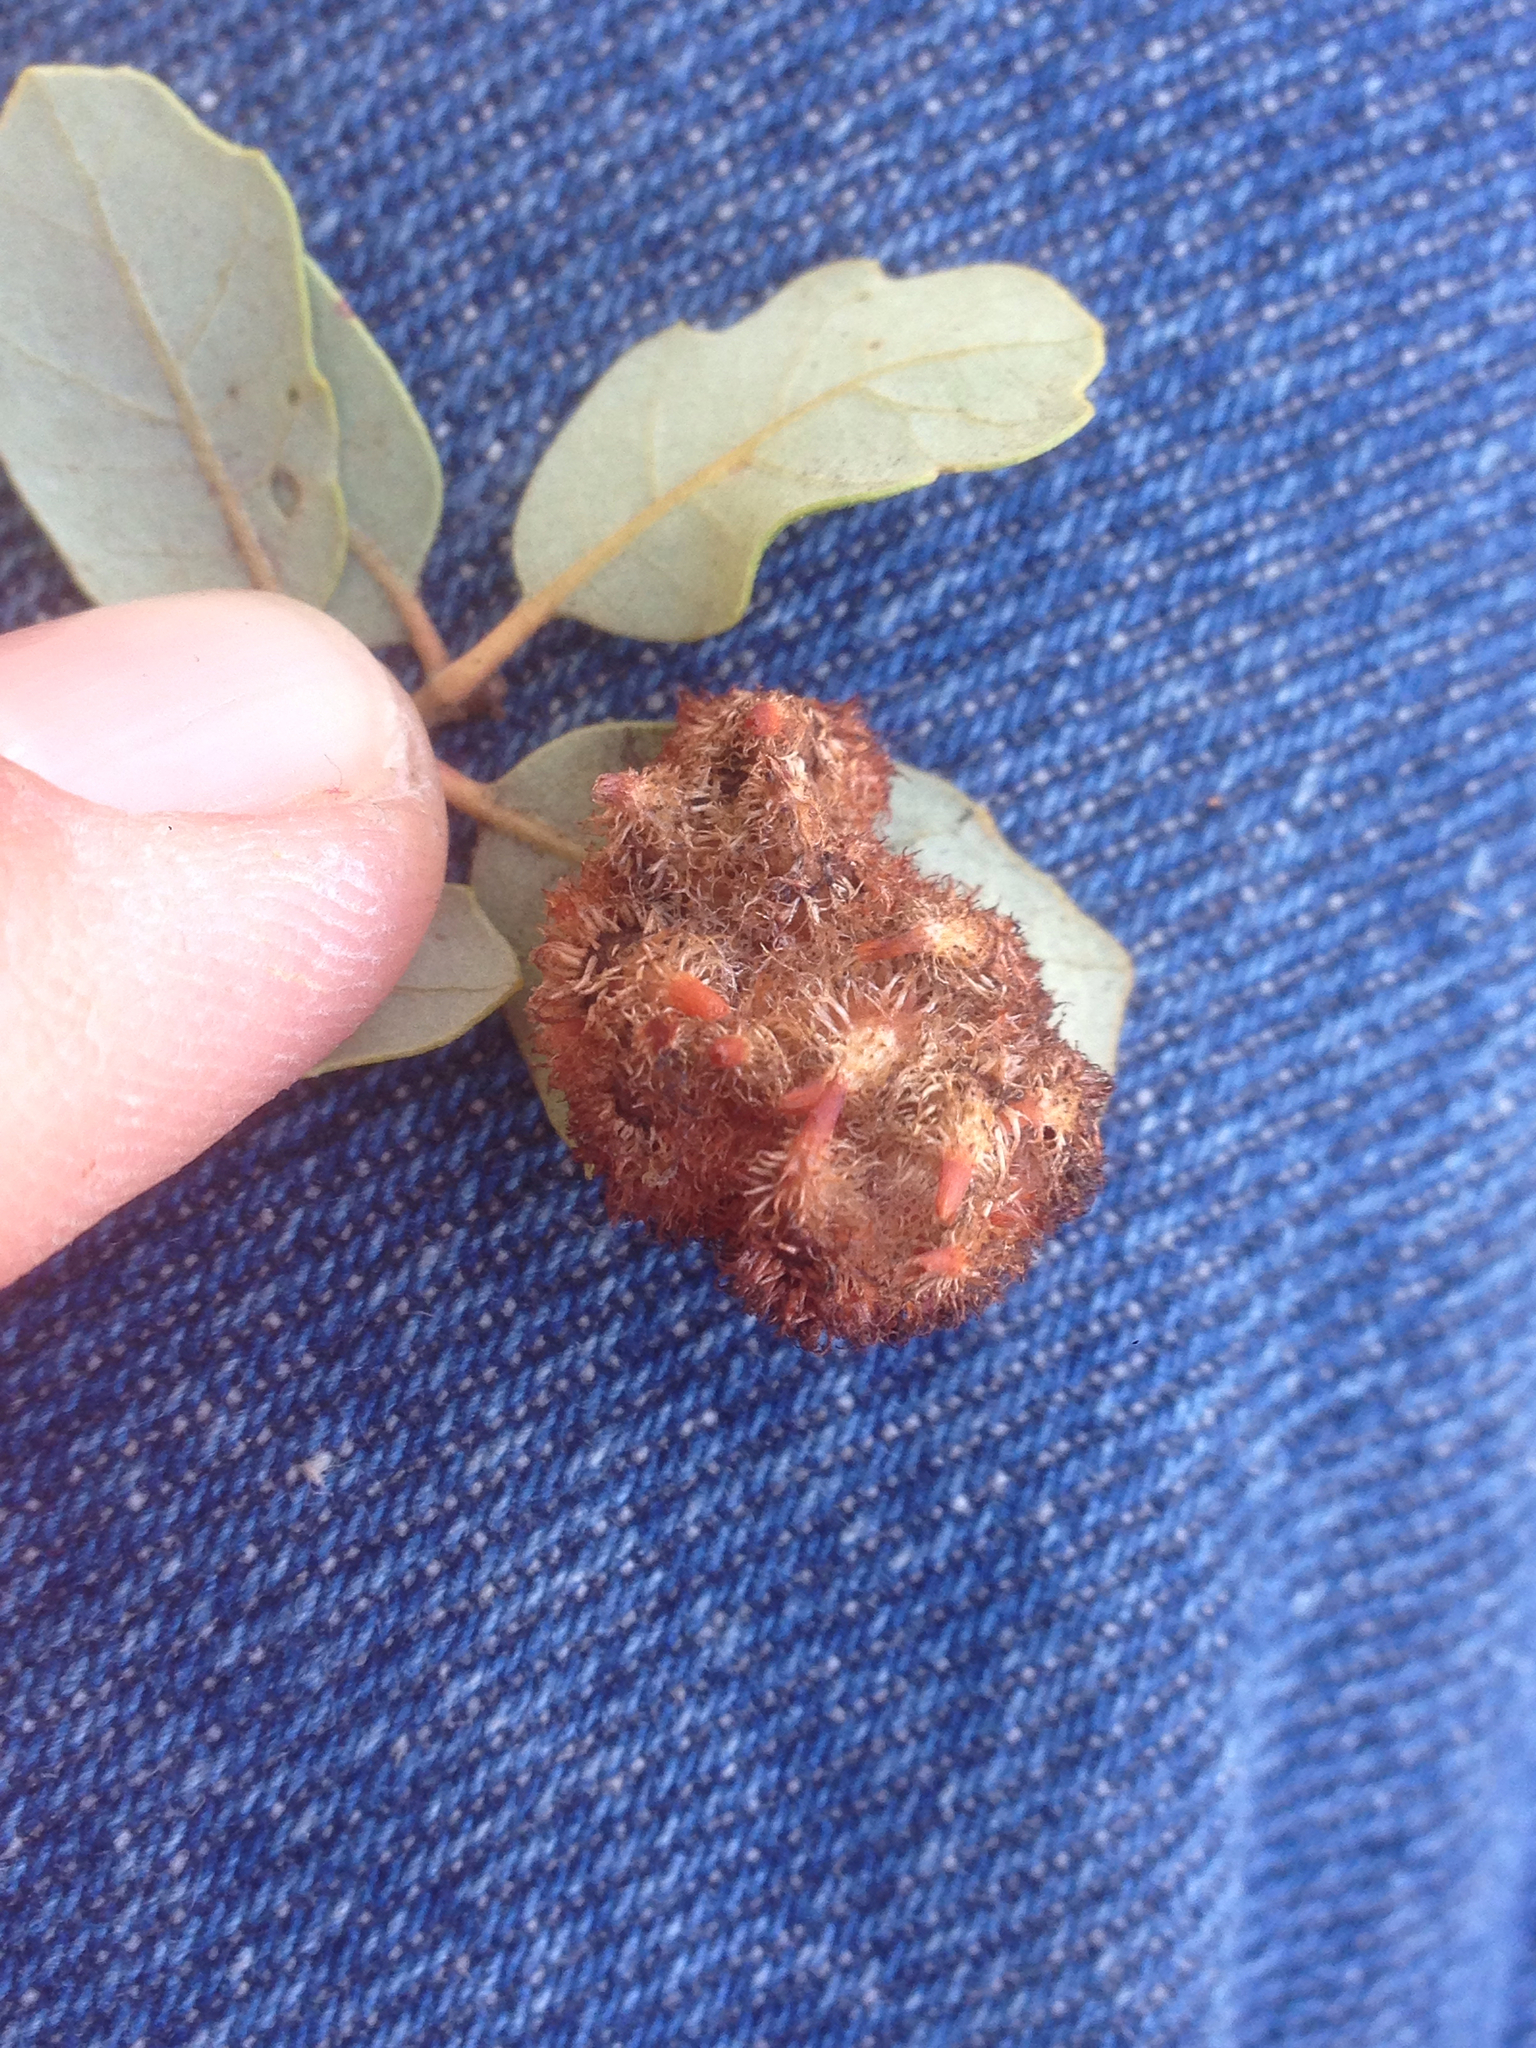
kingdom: Animalia
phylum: Arthropoda
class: Insecta
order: Hymenoptera
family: Cynipidae
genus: Andricus
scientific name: Andricus
